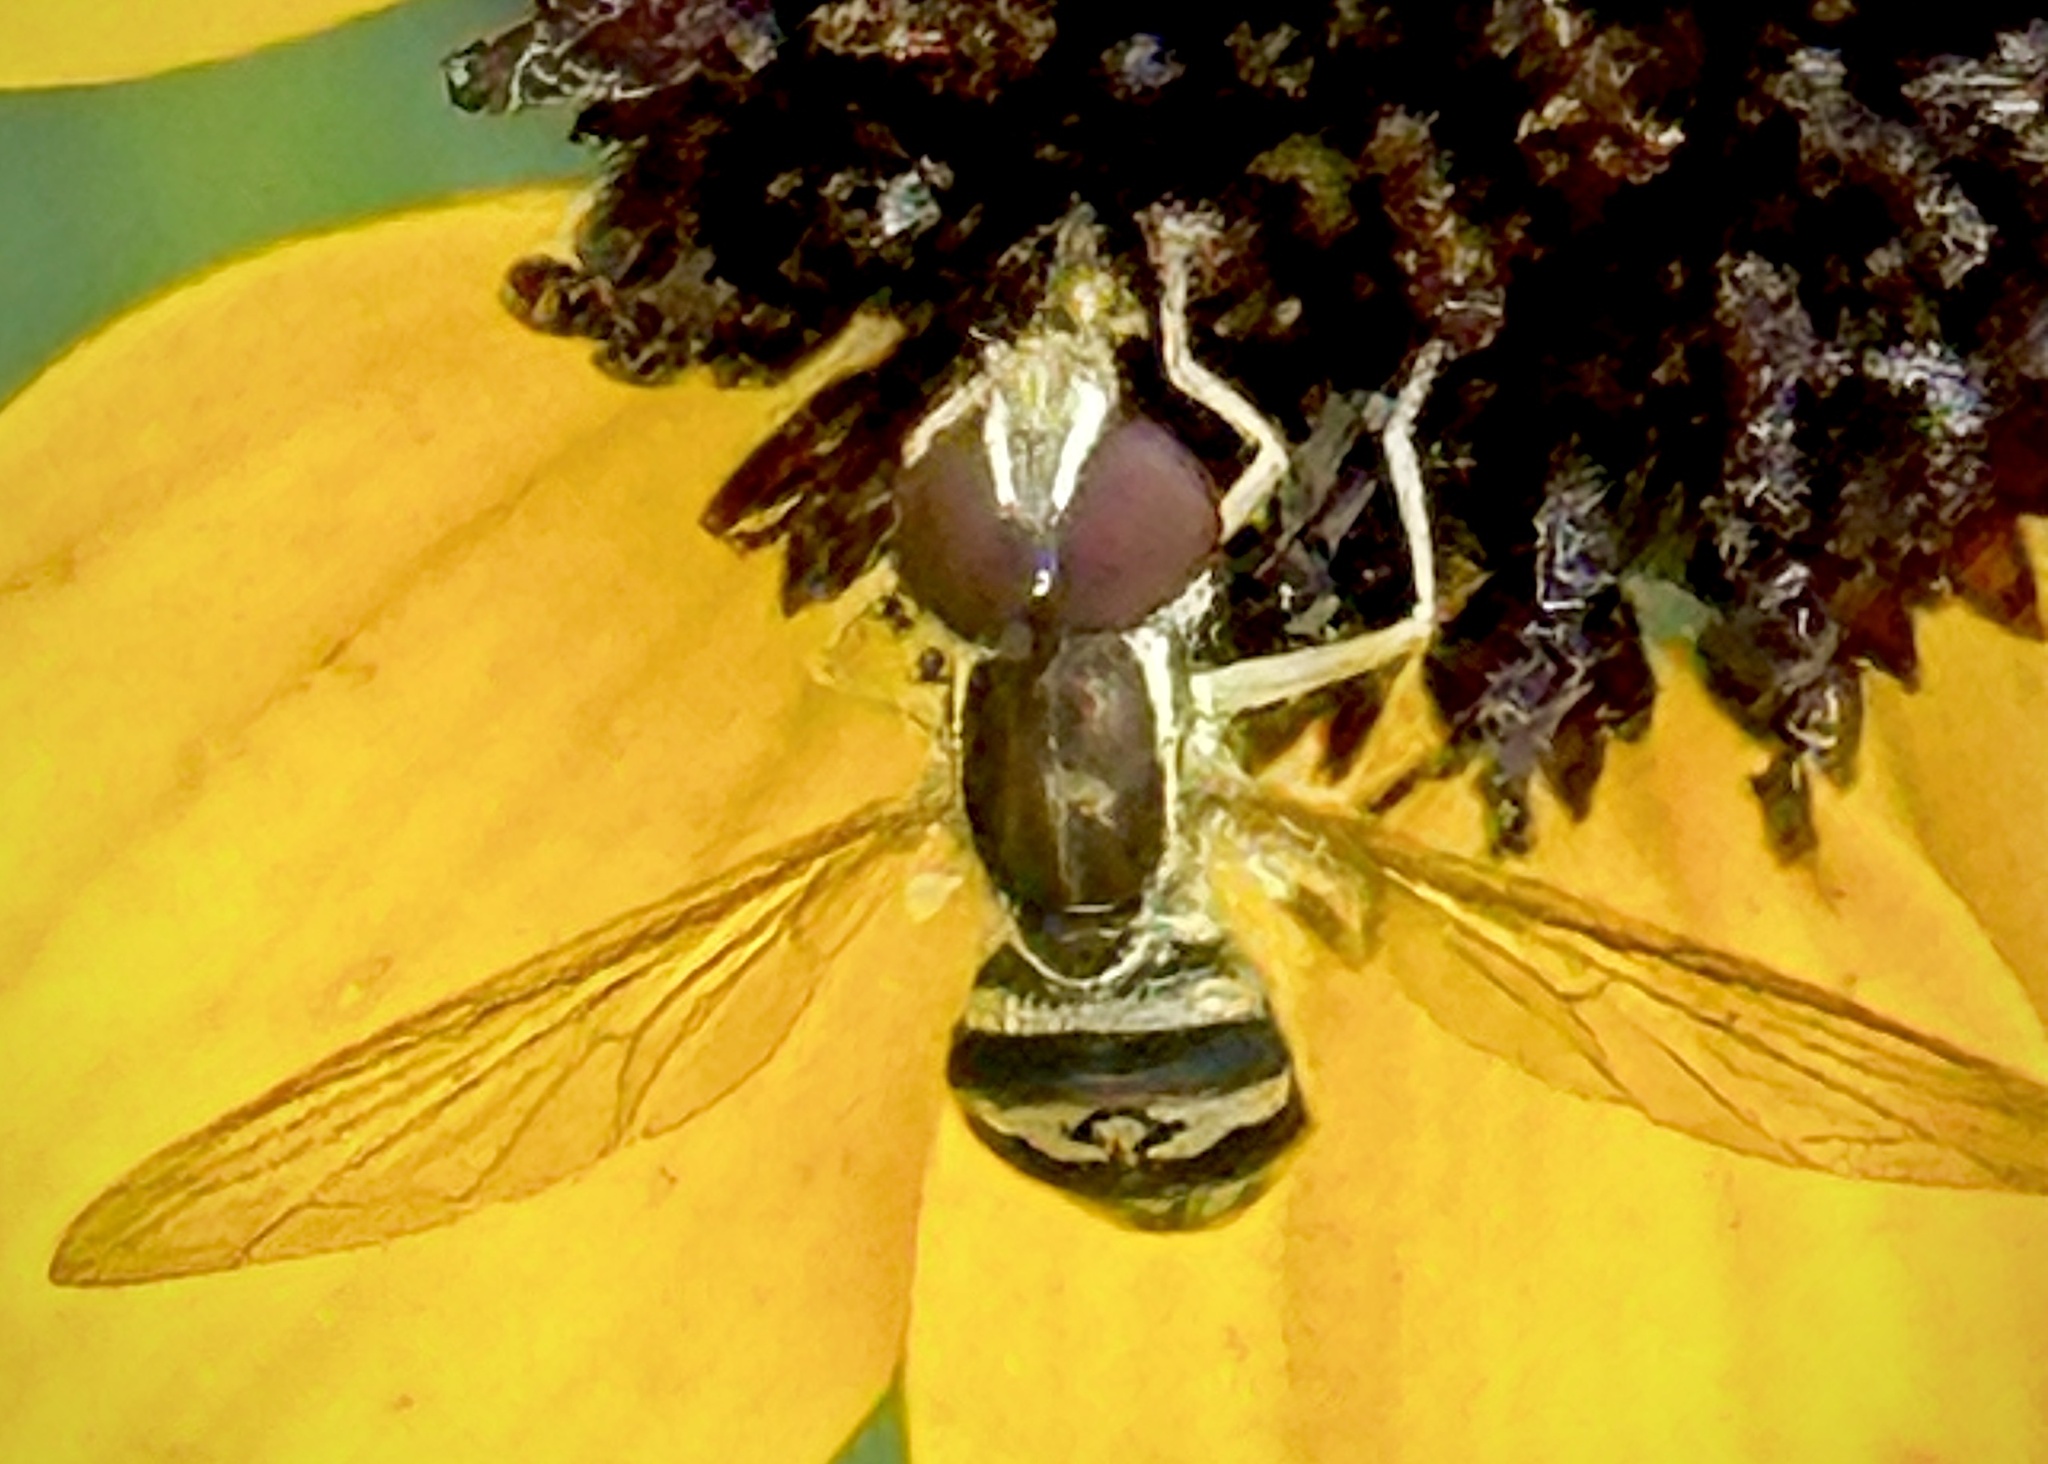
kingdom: Animalia
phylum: Arthropoda
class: Insecta
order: Diptera
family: Syrphidae
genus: Toxomerus
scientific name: Toxomerus geminatus
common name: Eastern calligrapher
